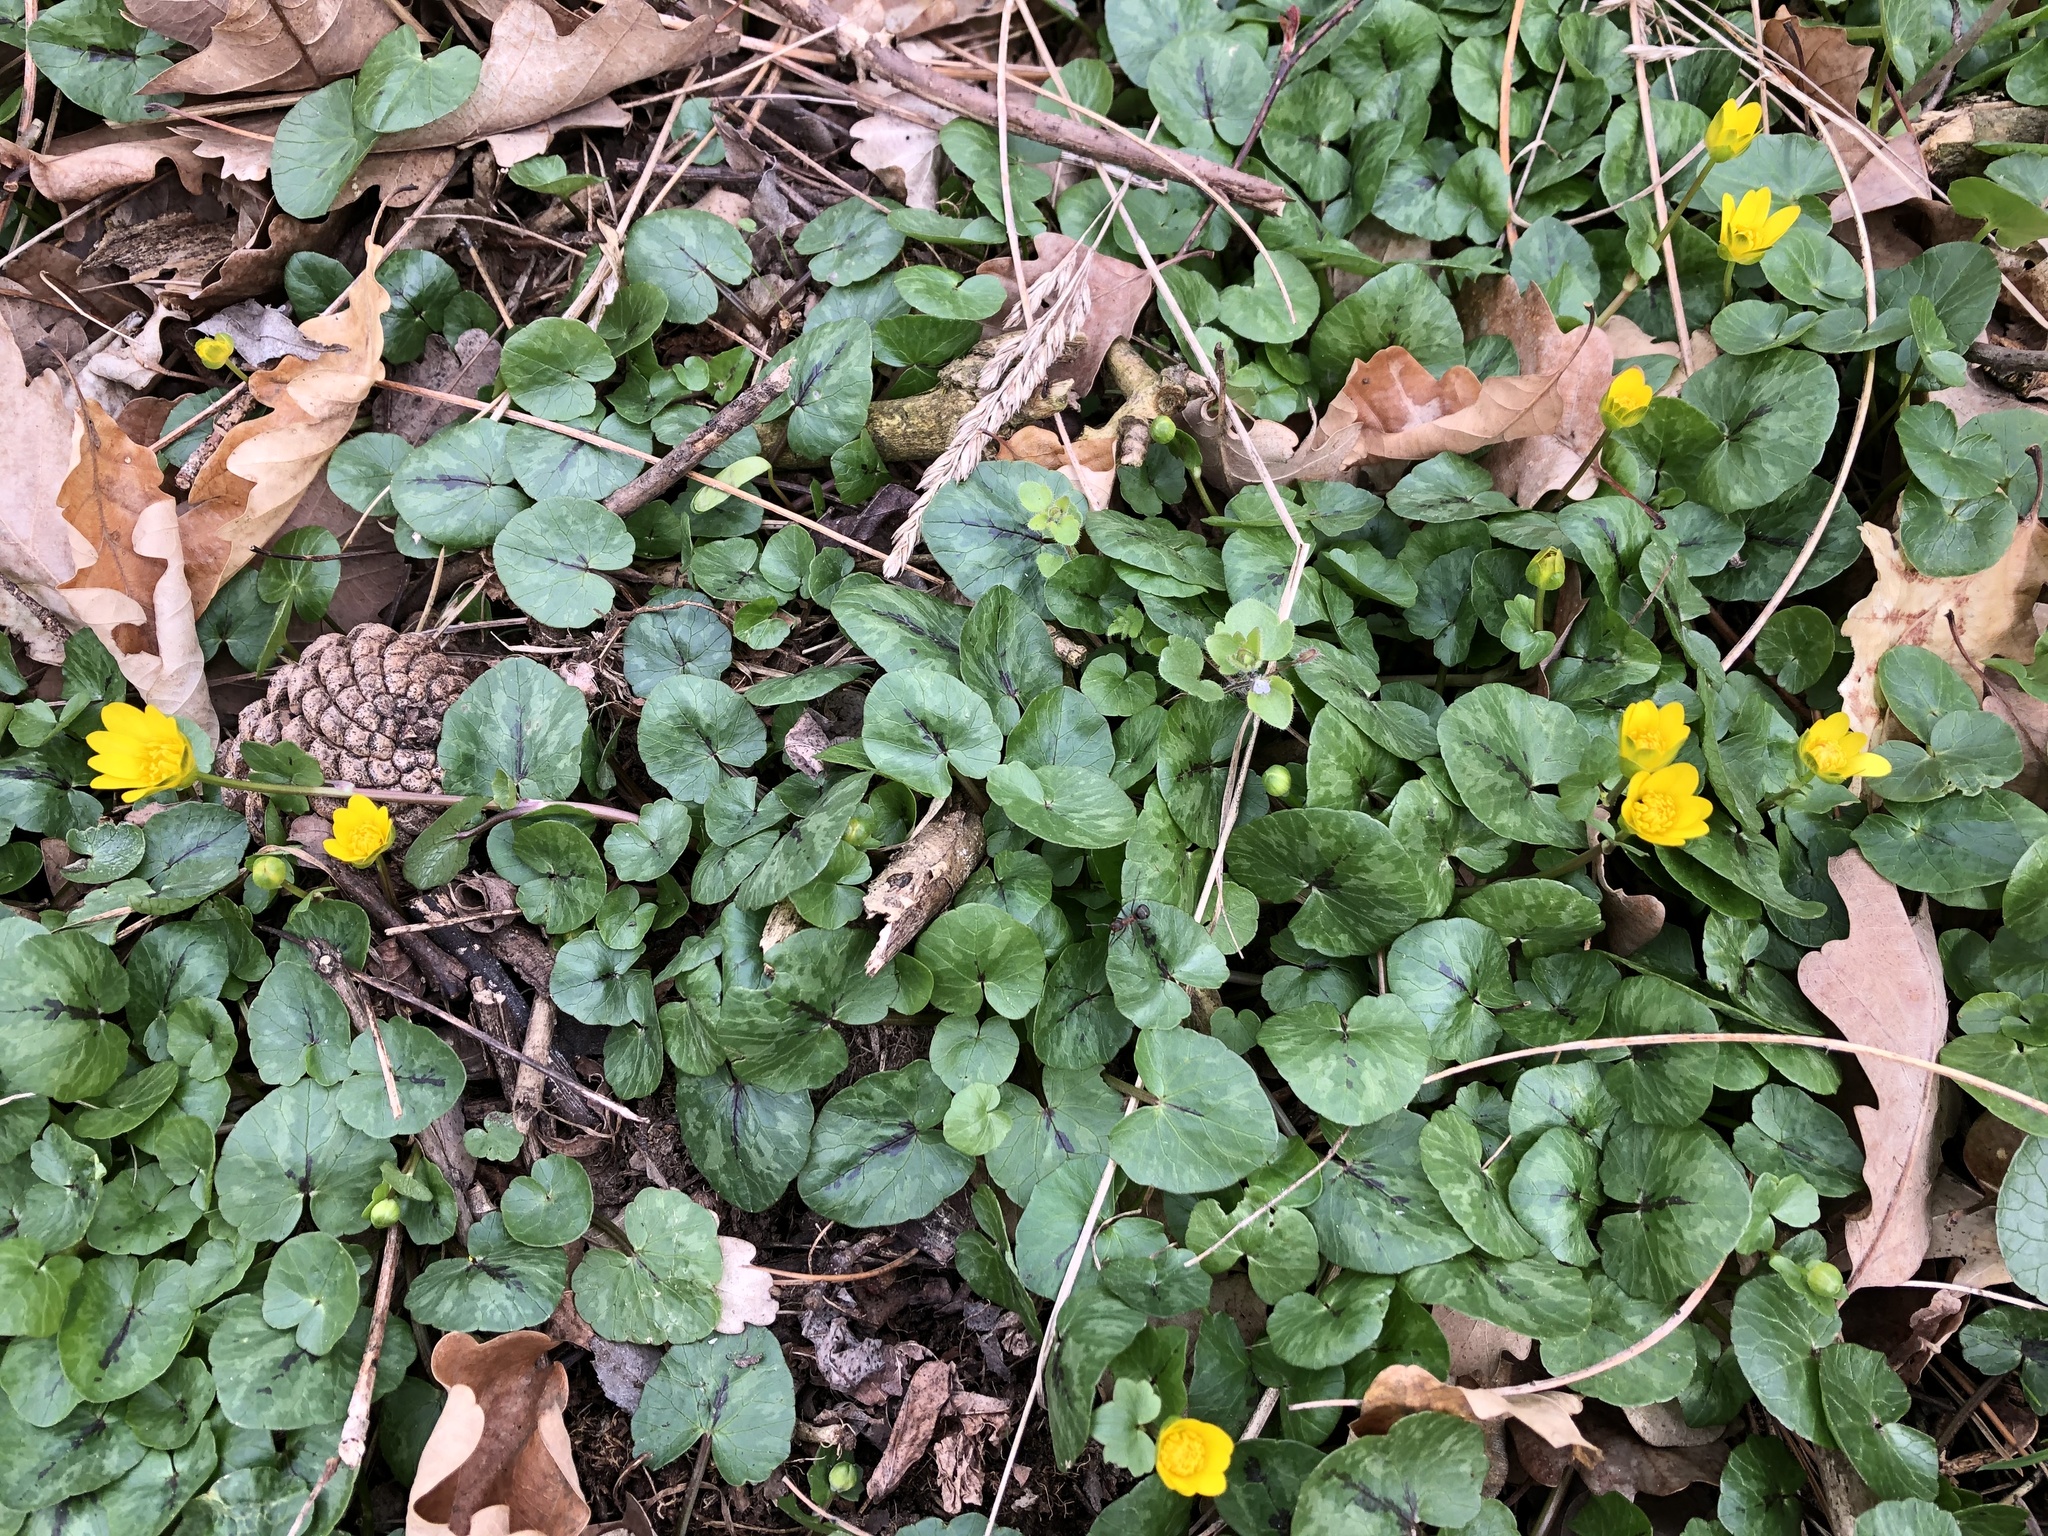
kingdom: Plantae
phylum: Tracheophyta
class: Magnoliopsida
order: Ranunculales
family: Ranunculaceae
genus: Ficaria
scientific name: Ficaria verna
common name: Lesser celandine
